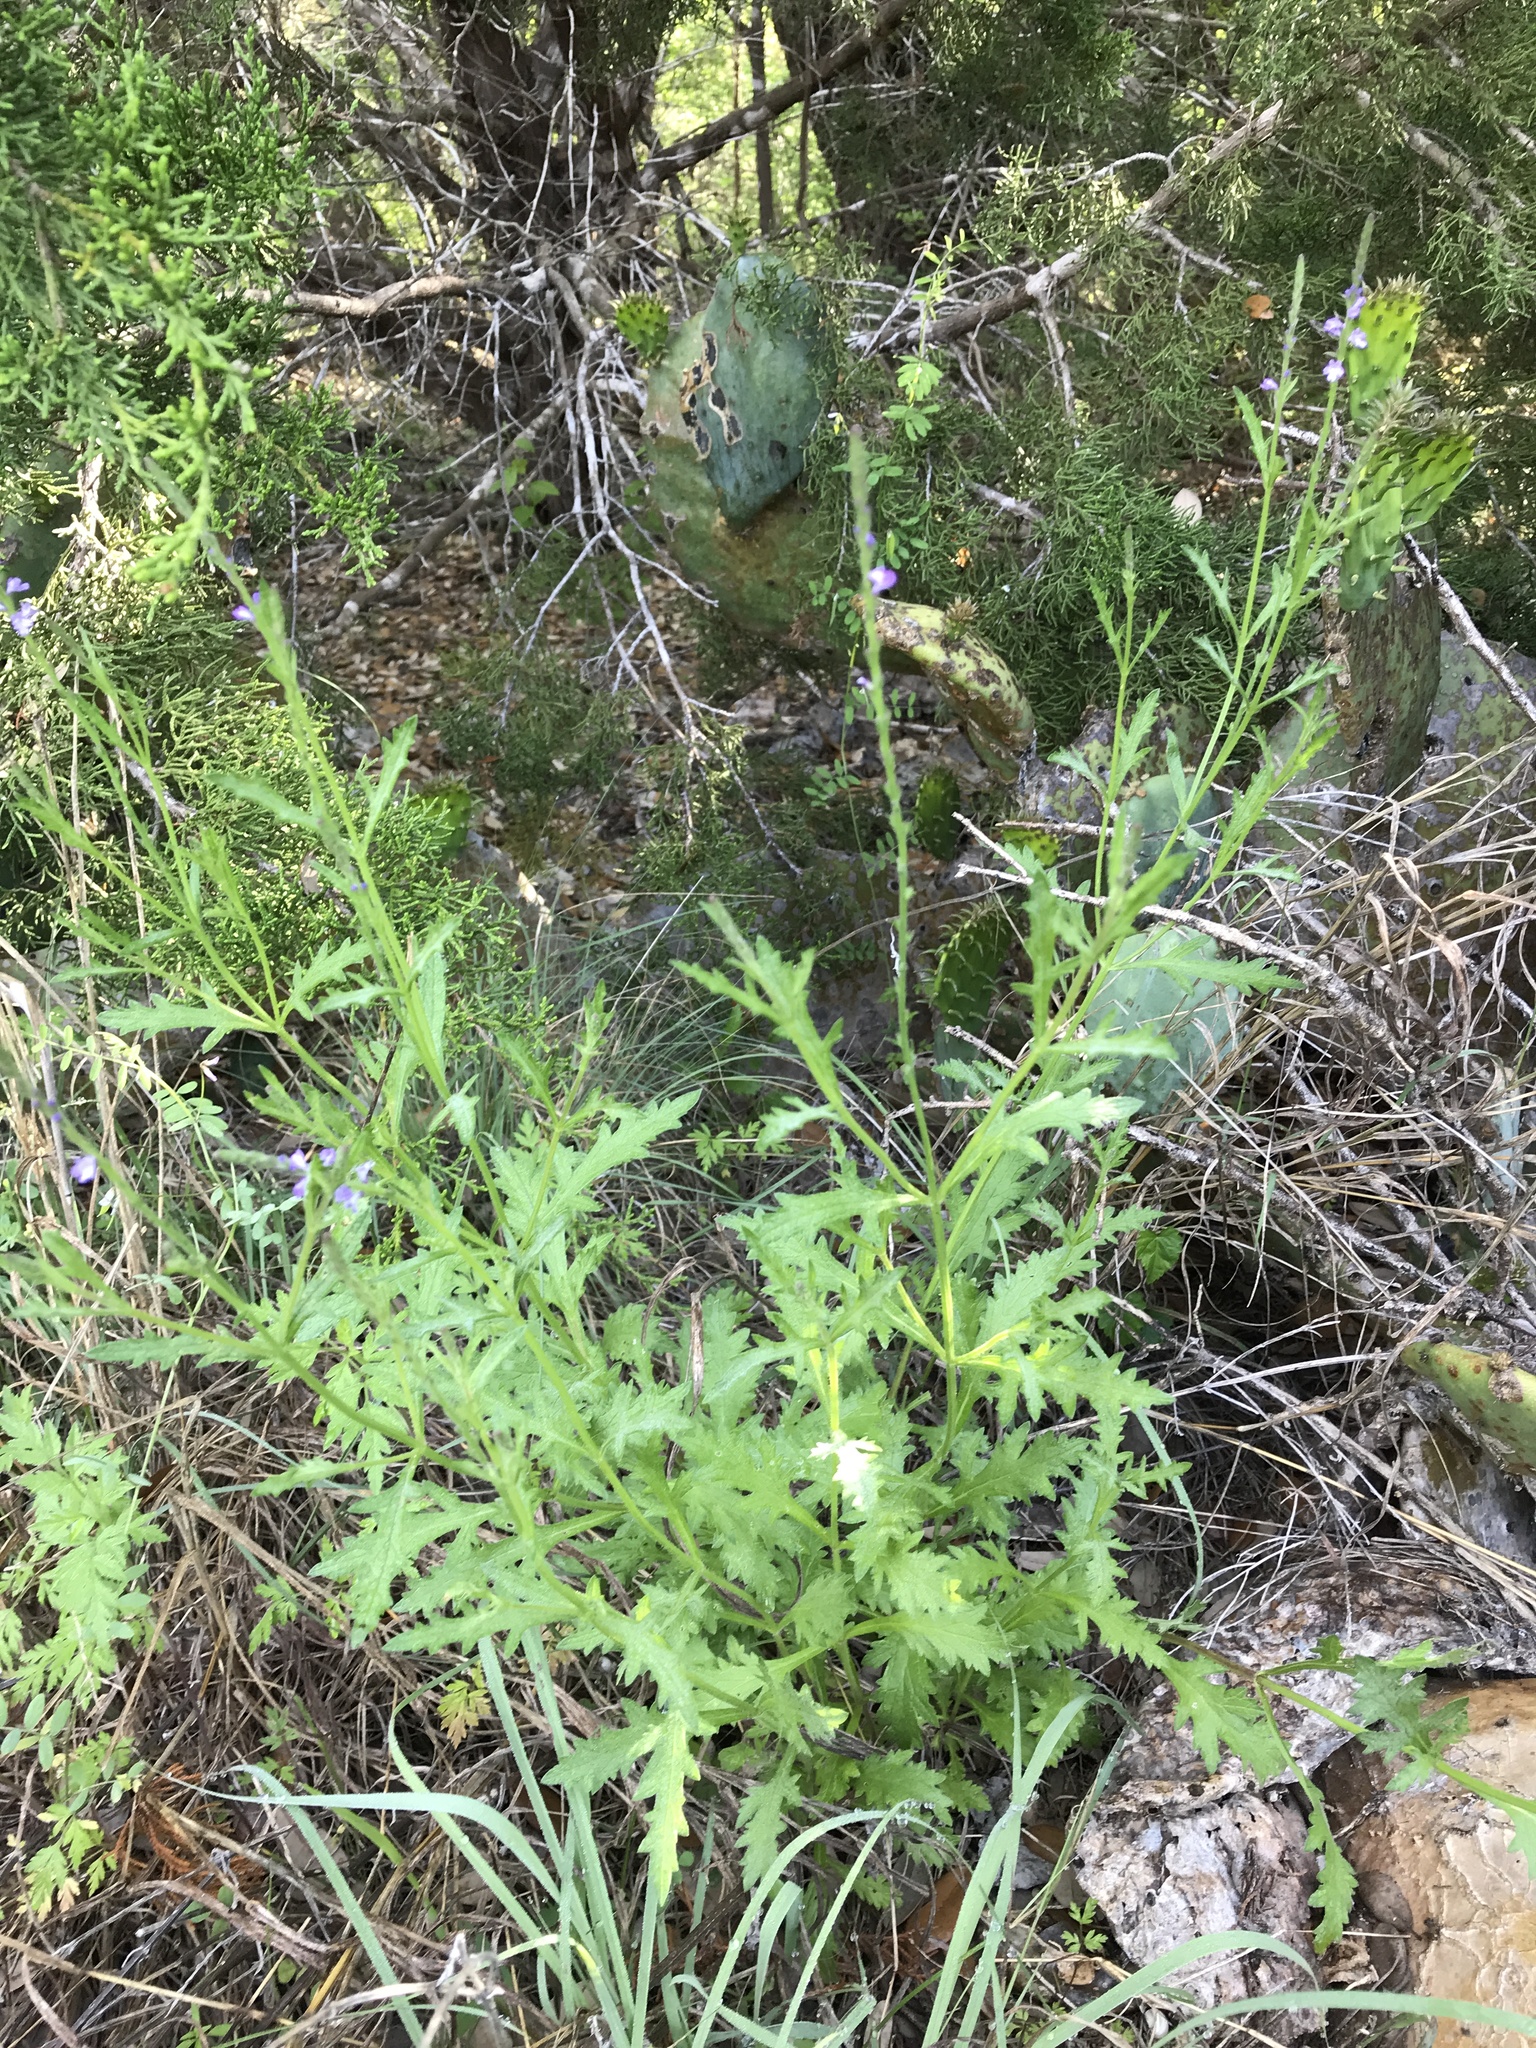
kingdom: Plantae
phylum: Tracheophyta
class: Magnoliopsida
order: Lamiales
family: Verbenaceae
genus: Verbena
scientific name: Verbena halei
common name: Texas vervain
